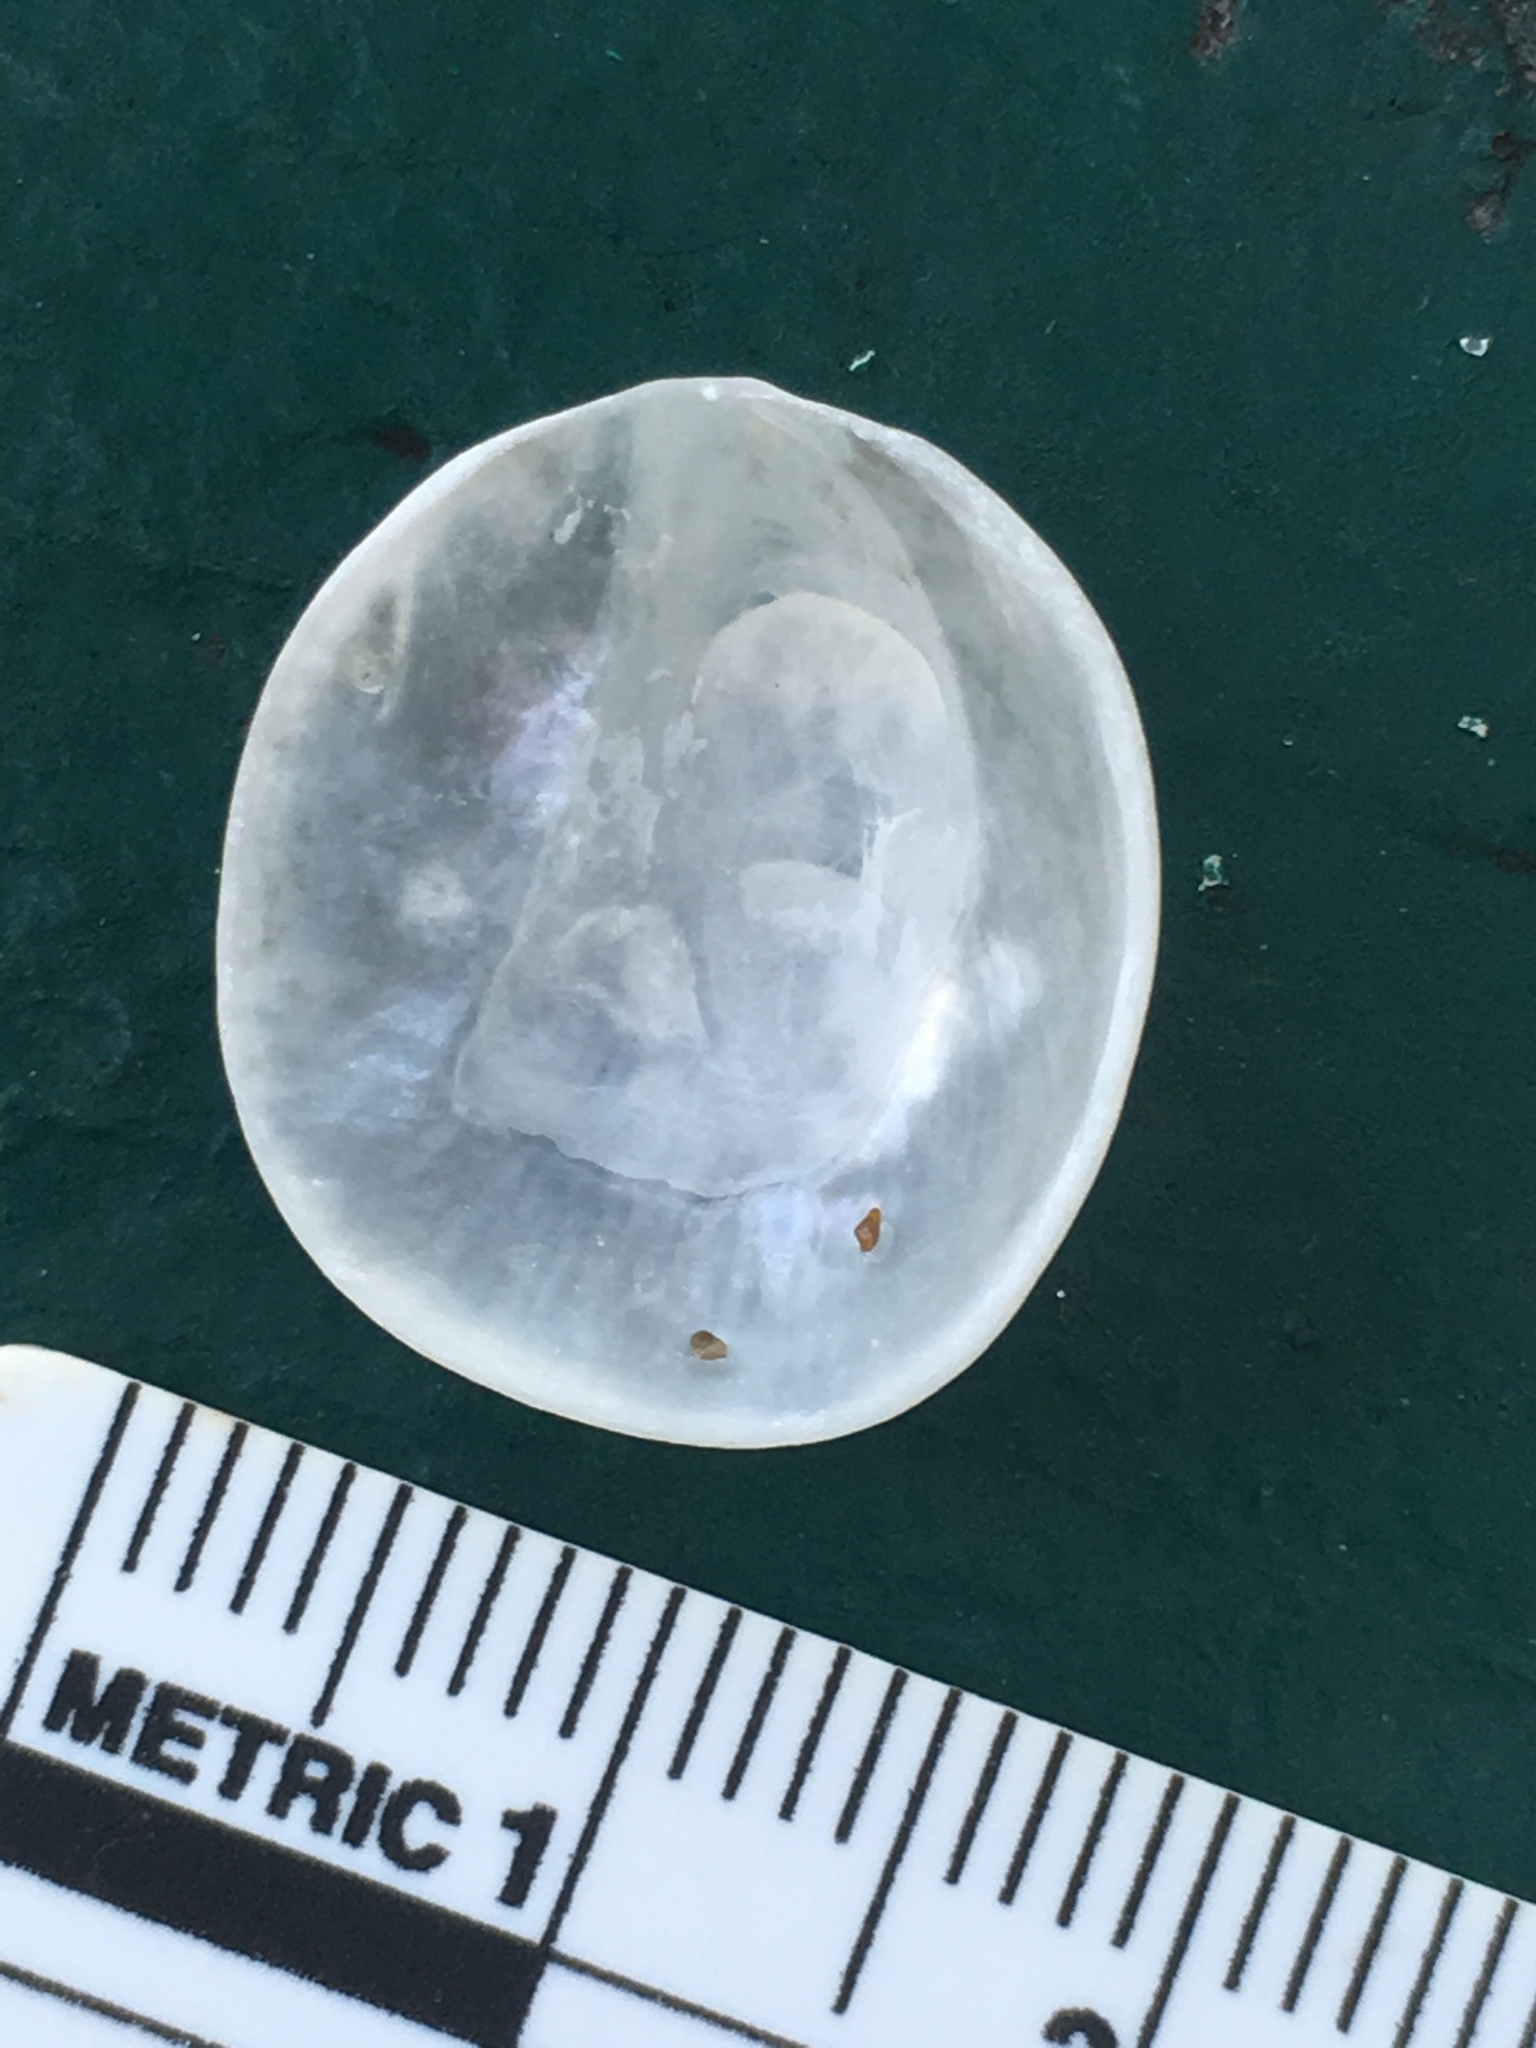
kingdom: Animalia
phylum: Mollusca
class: Bivalvia
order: Pectinida
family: Anomiidae
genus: Anomia
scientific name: Anomia simplex
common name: Common jingle shell
